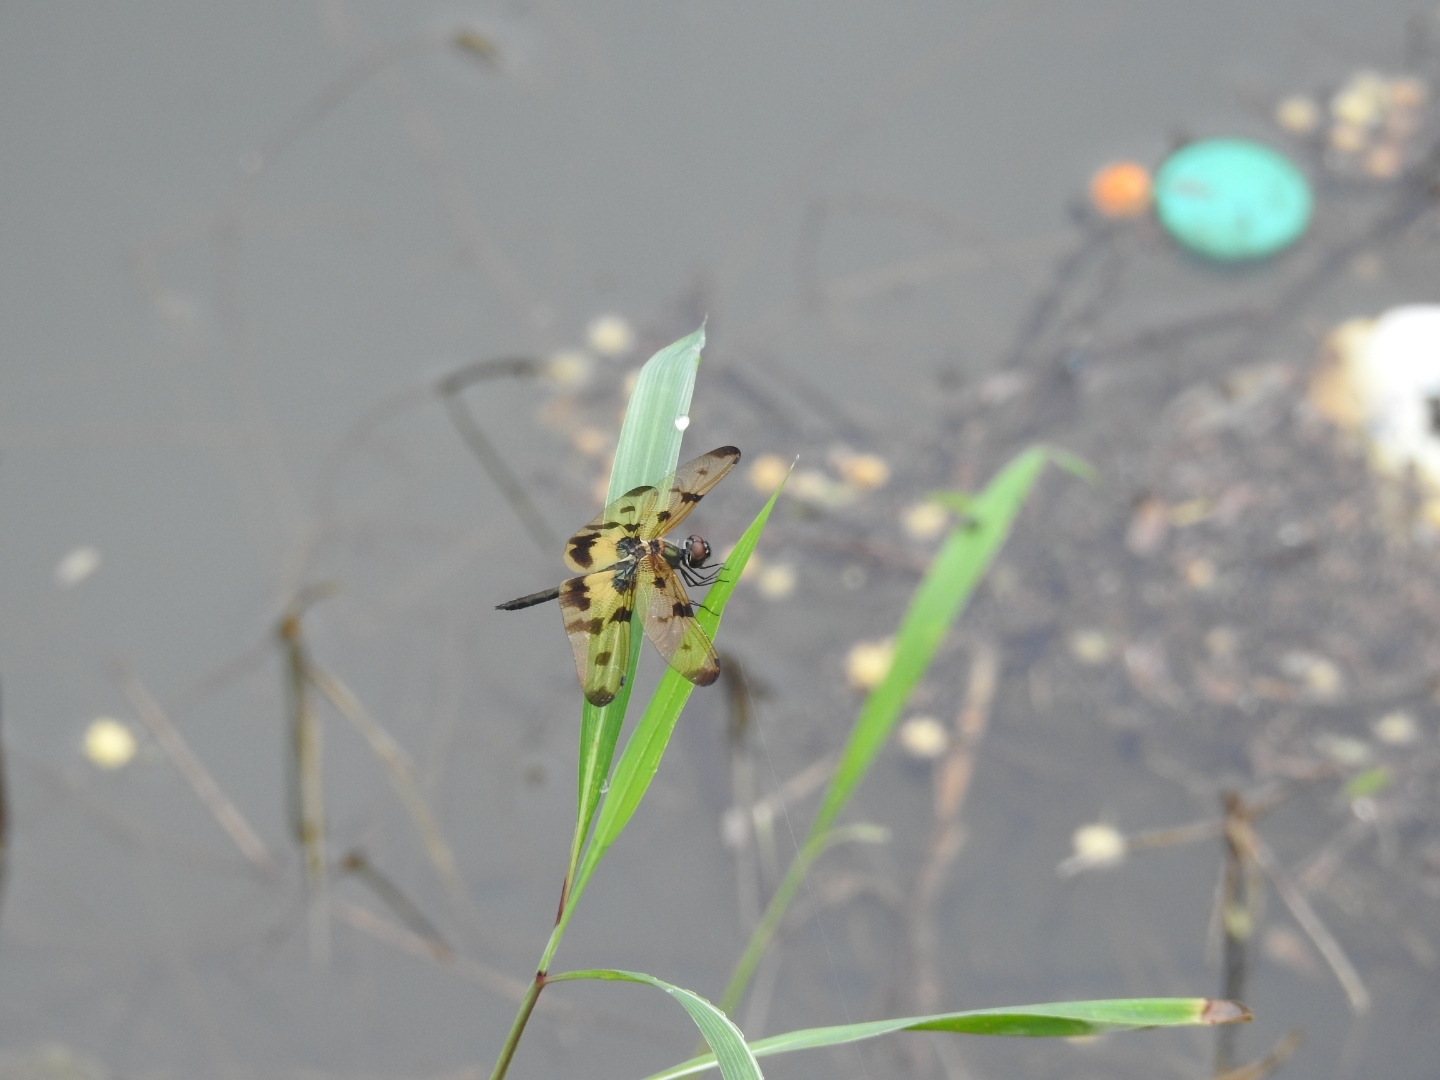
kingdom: Animalia
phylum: Arthropoda
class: Insecta
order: Odonata
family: Libellulidae
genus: Rhyothemis
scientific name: Rhyothemis variegata
